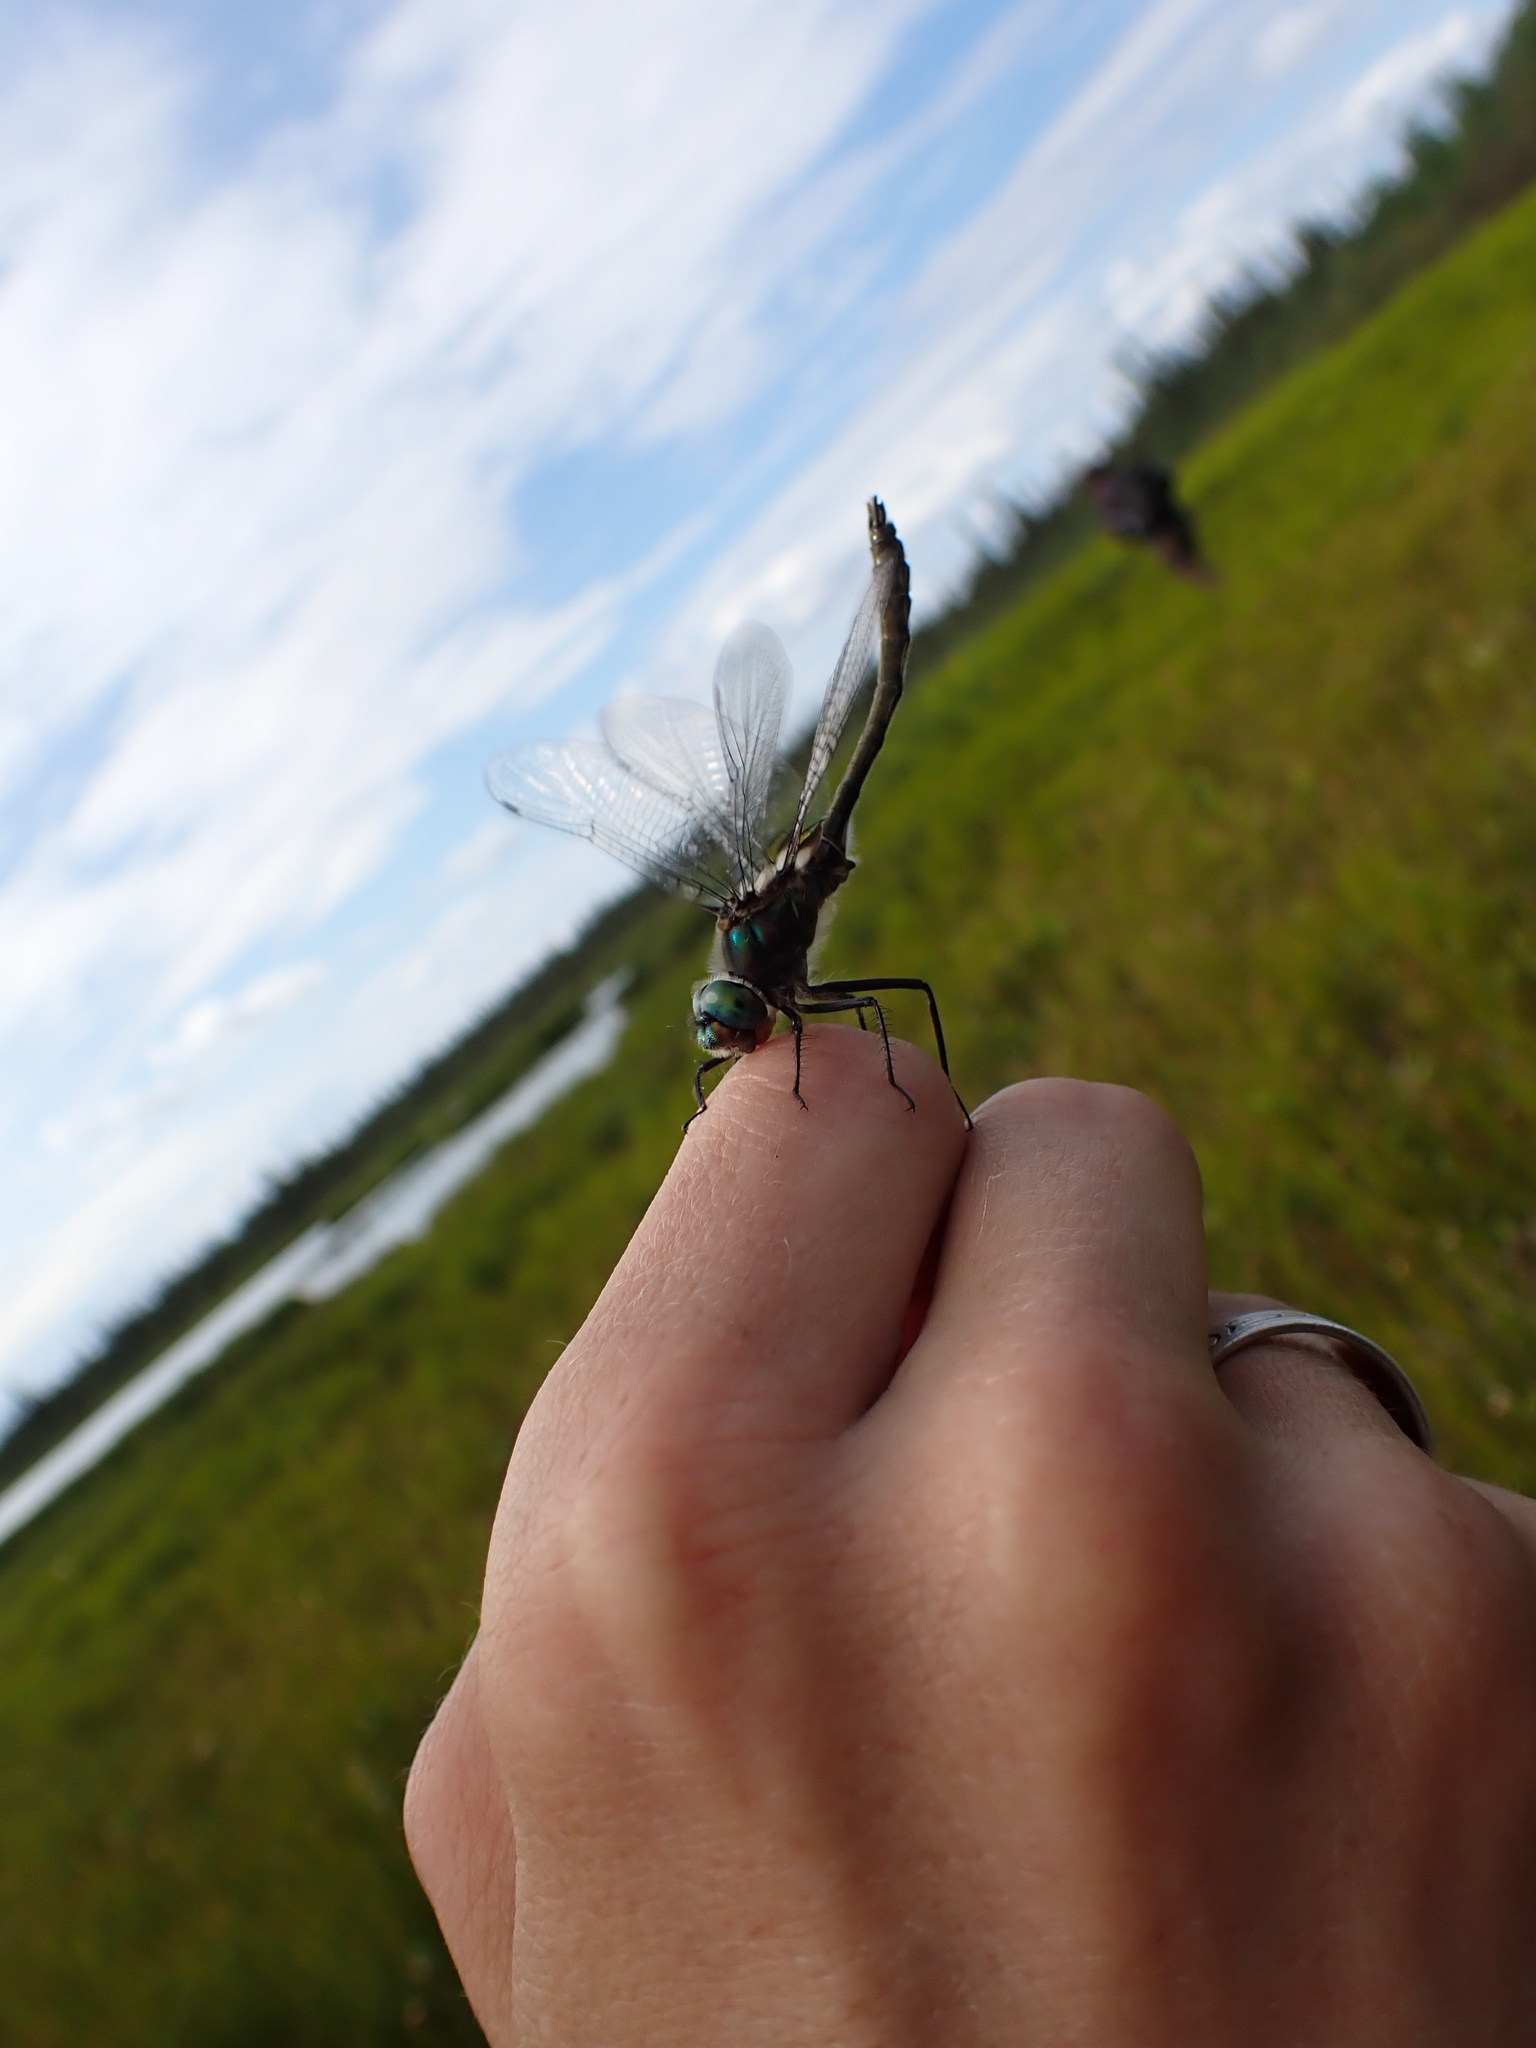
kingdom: Animalia
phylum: Arthropoda
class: Insecta
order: Odonata
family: Corduliidae
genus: Cordulia
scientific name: Cordulia shurtleffii
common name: American emerald
